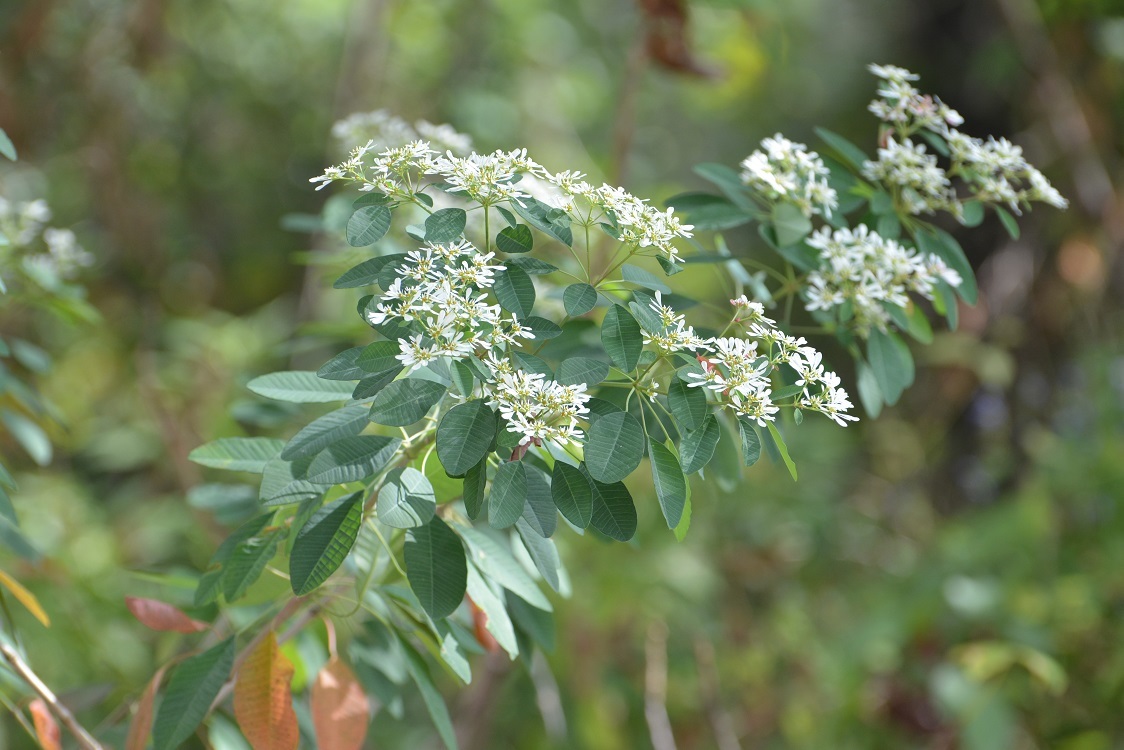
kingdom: Plantae
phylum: Tracheophyta
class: Magnoliopsida
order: Malpighiales
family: Euphorbiaceae
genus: Euphorbia
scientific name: Euphorbia leucocephala
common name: Pascuita
